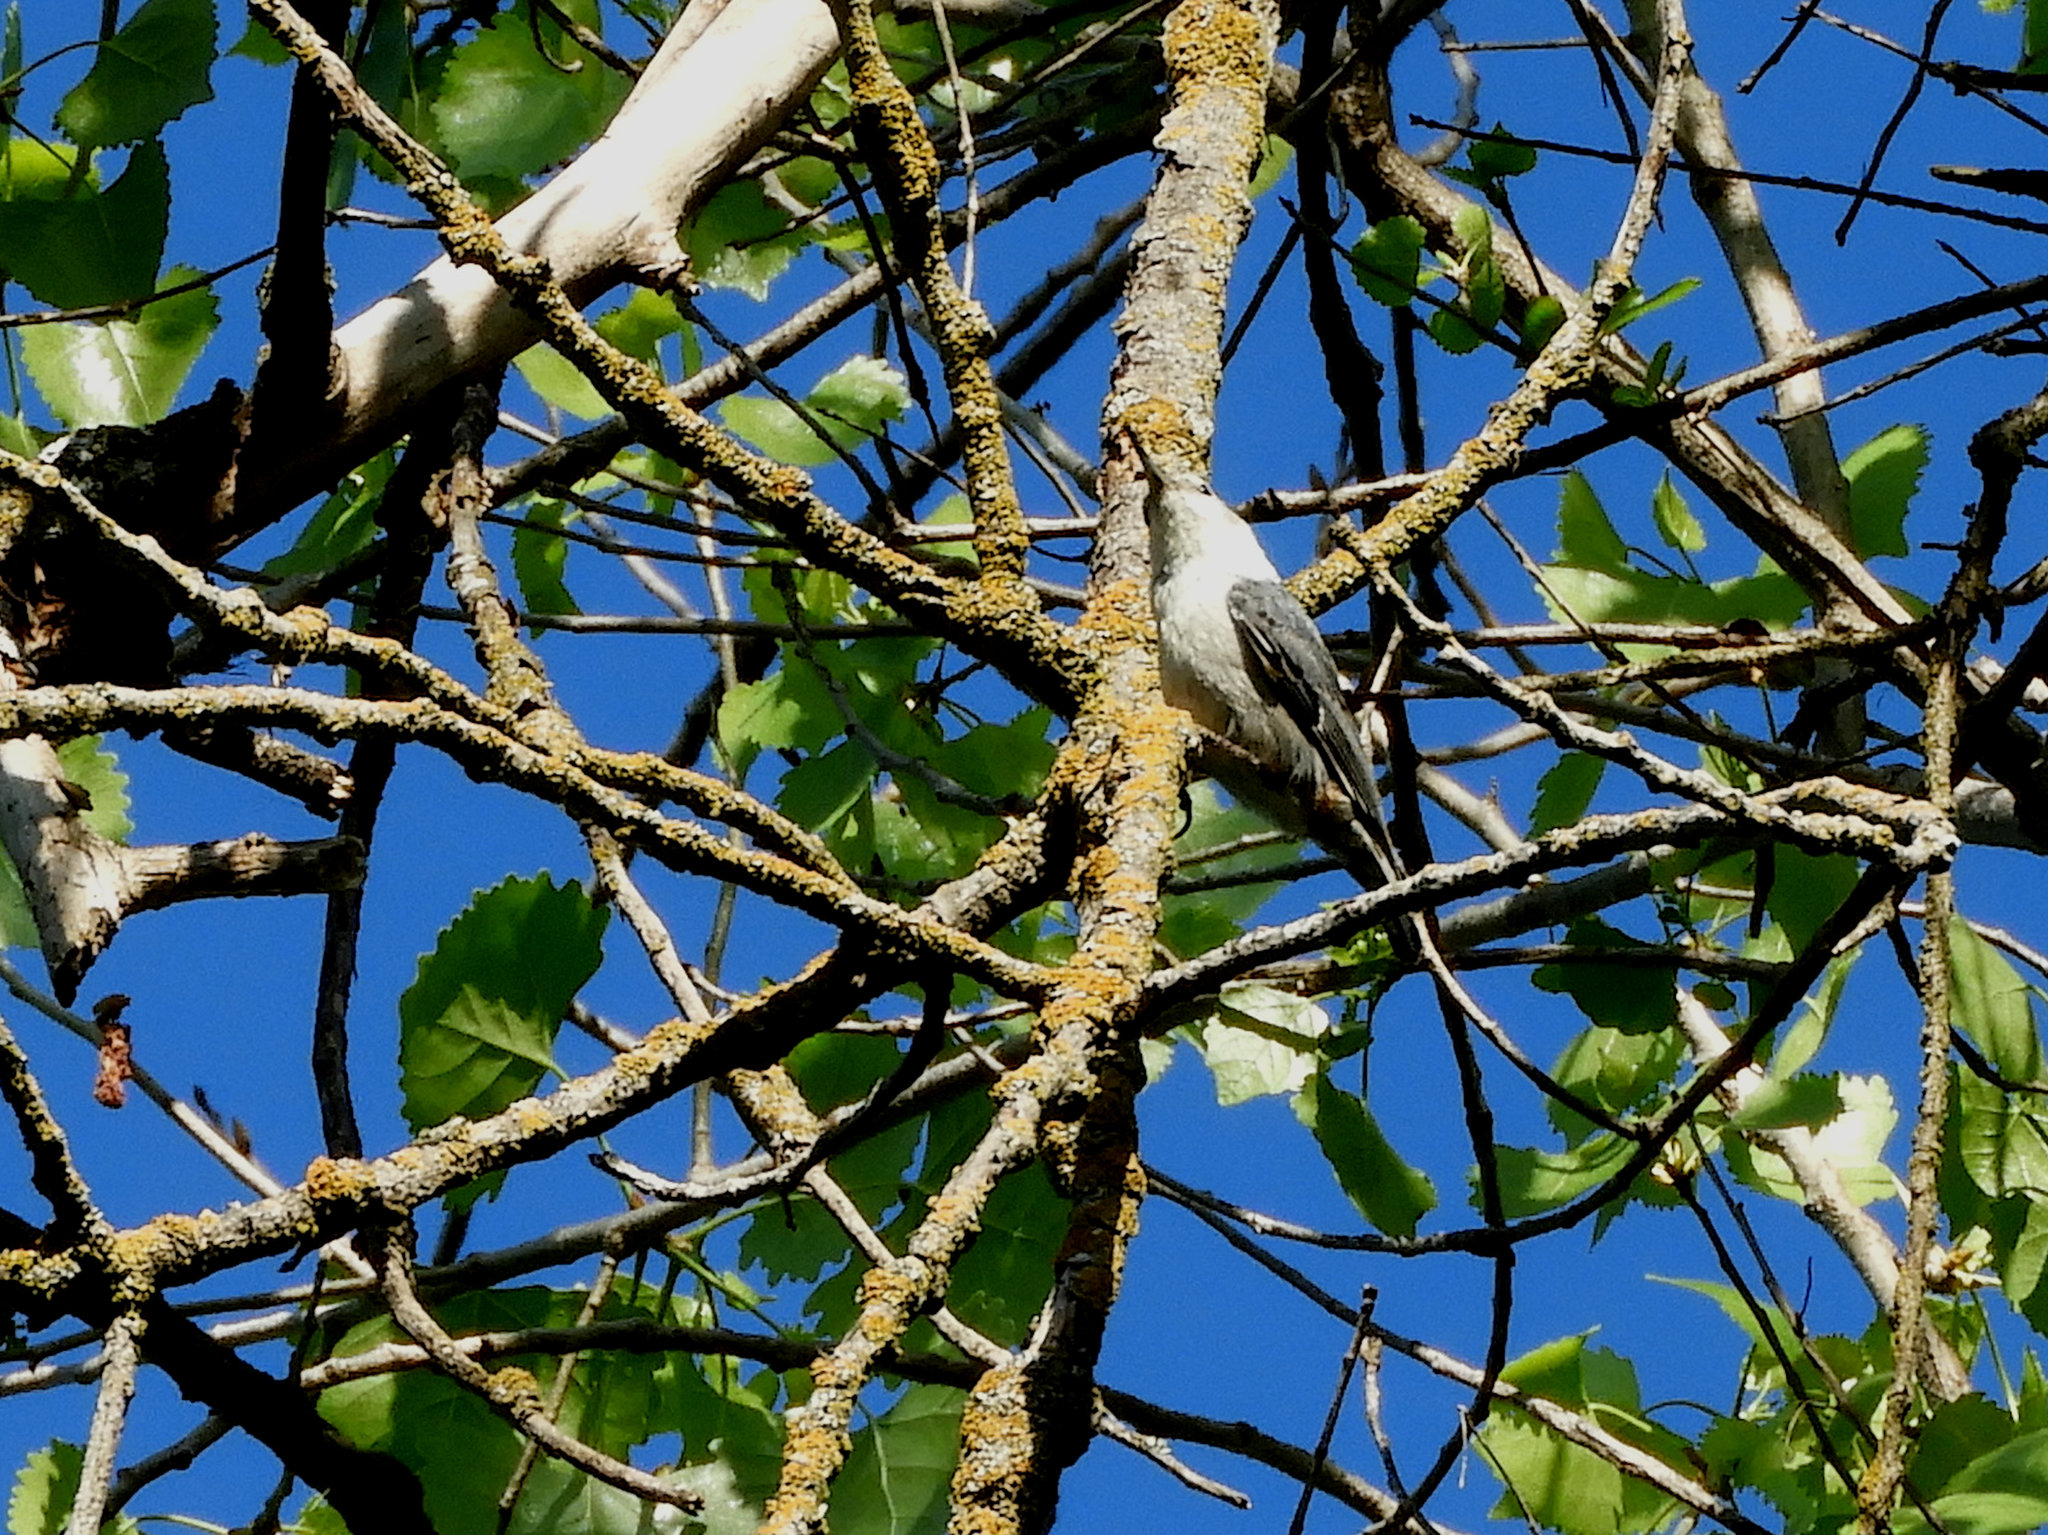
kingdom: Animalia
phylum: Chordata
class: Aves
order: Passeriformes
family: Sittidae
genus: Sitta
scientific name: Sitta carolinensis
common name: White-breasted nuthatch
